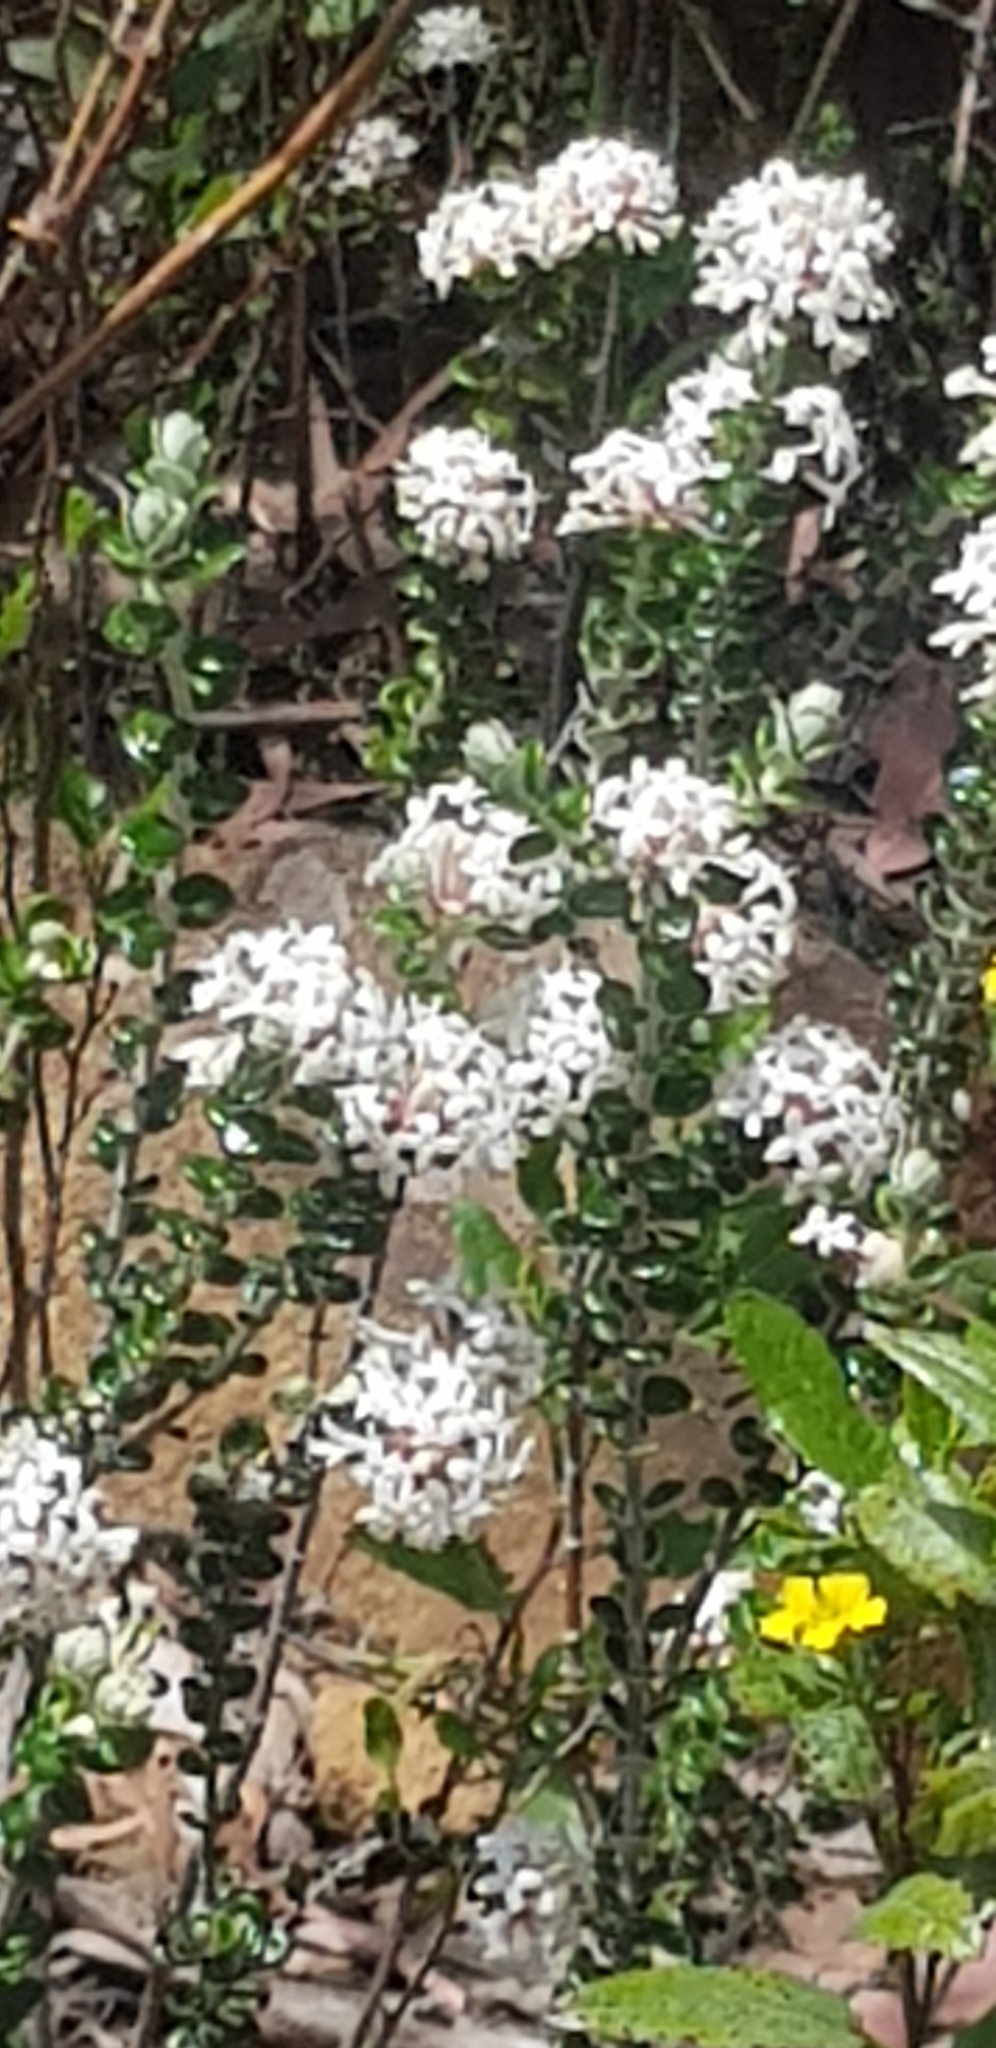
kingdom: Plantae
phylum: Tracheophyta
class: Magnoliopsida
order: Malvales
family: Thymelaeaceae
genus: Pimelea
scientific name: Pimelea nivea
